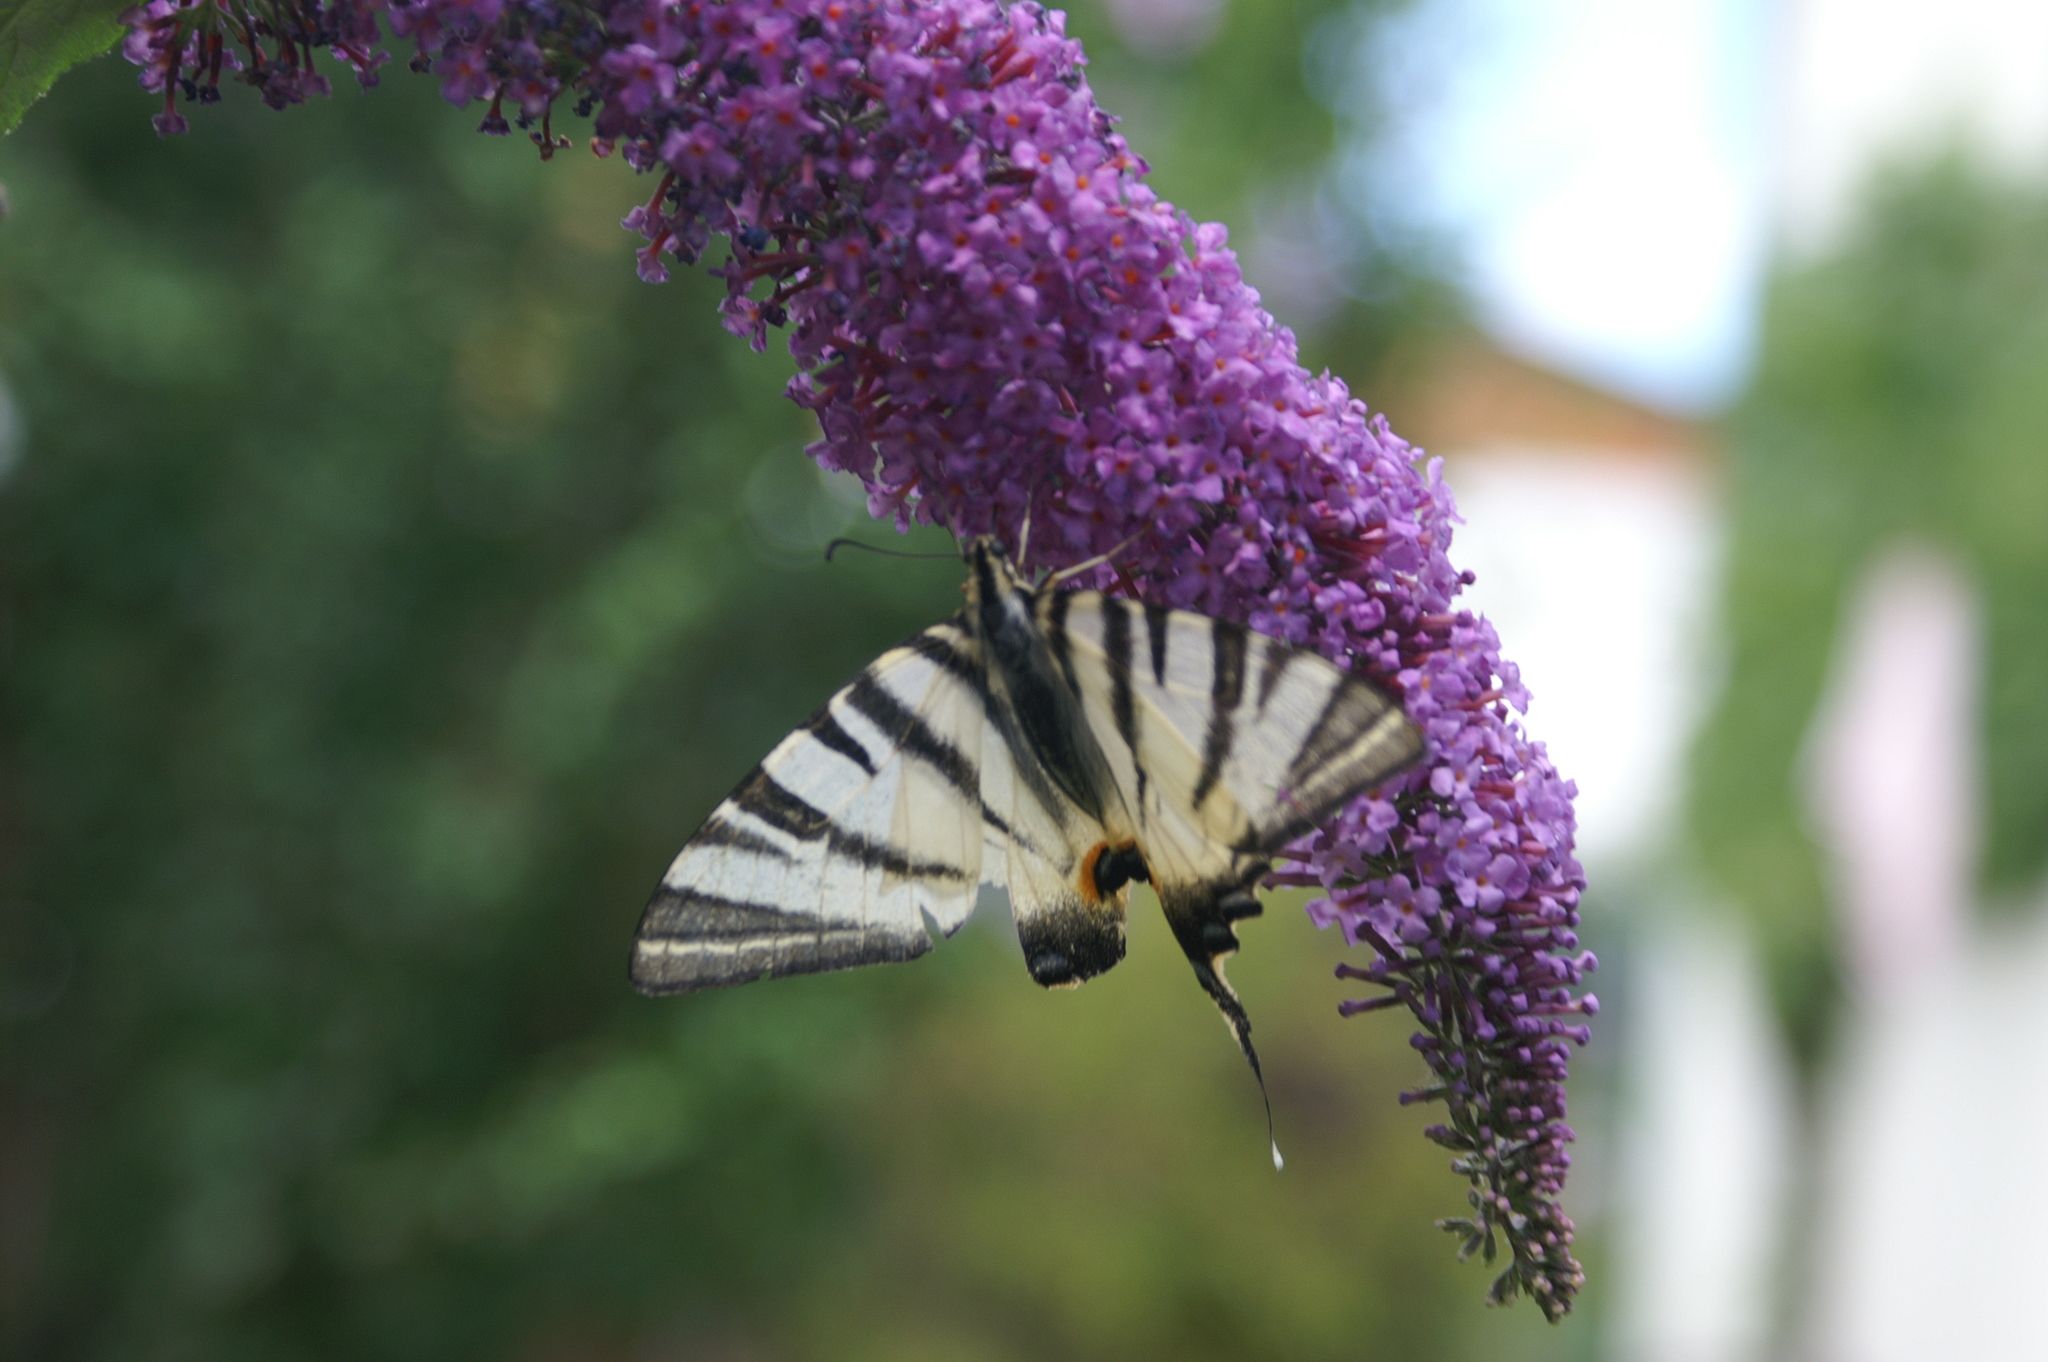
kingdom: Animalia
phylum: Arthropoda
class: Insecta
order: Lepidoptera
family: Papilionidae
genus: Iphiclides
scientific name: Iphiclides podalirius
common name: Scarce swallowtail
